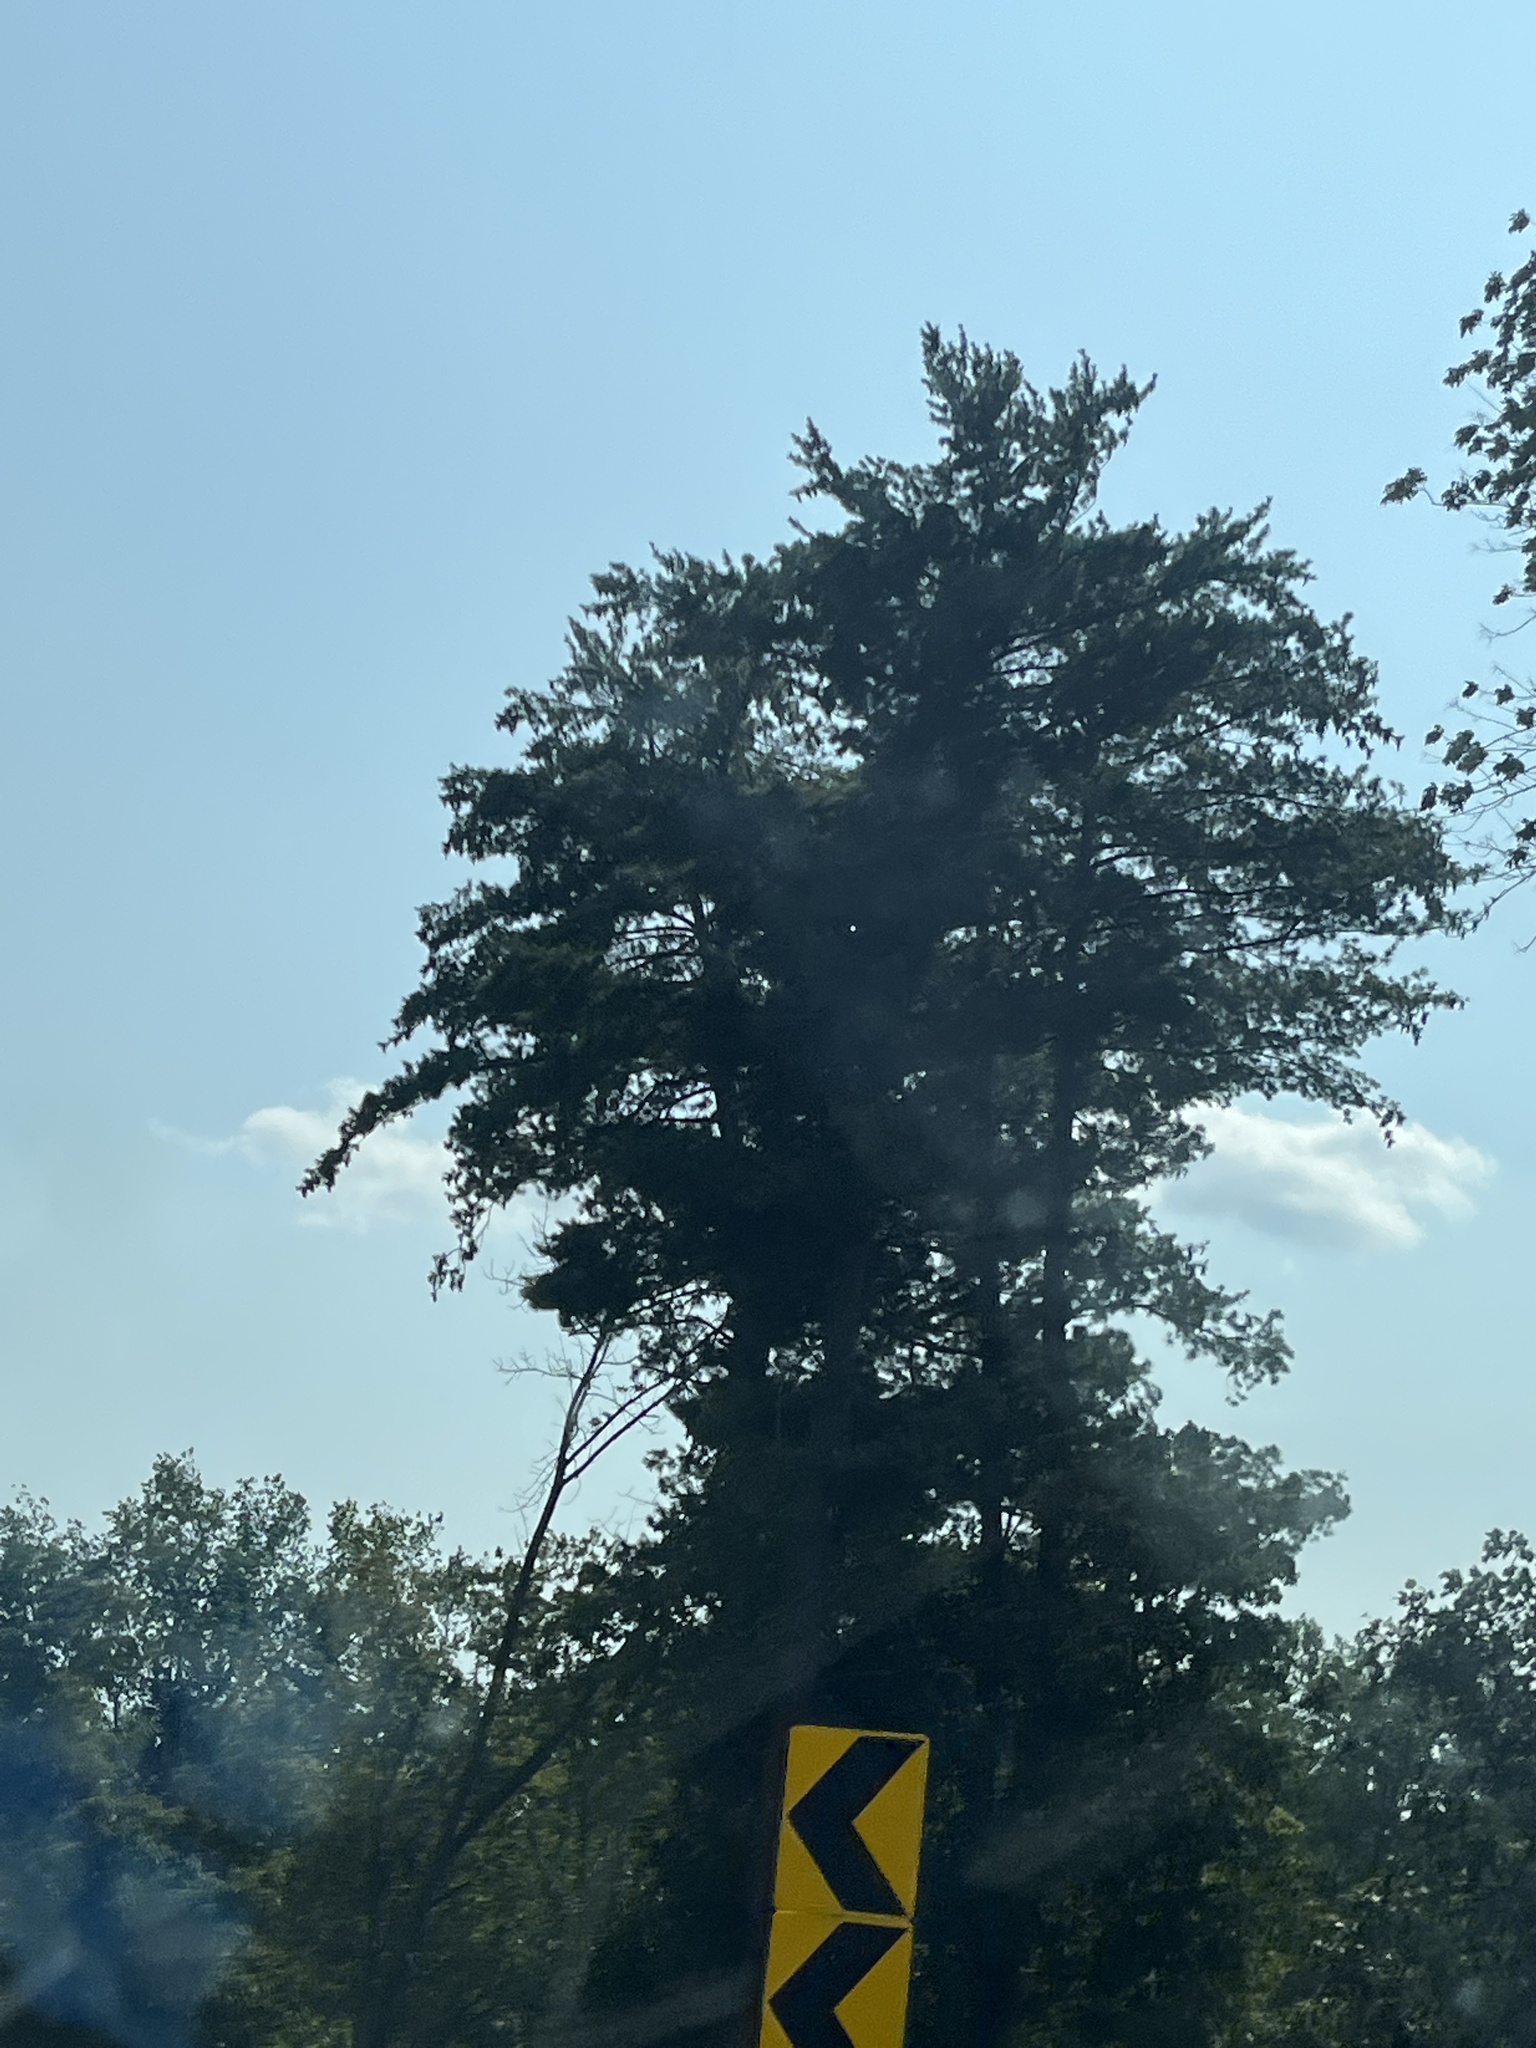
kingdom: Plantae
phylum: Tracheophyta
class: Pinopsida
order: Pinales
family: Pinaceae
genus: Pinus
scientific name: Pinus strobus
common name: Weymouth pine
